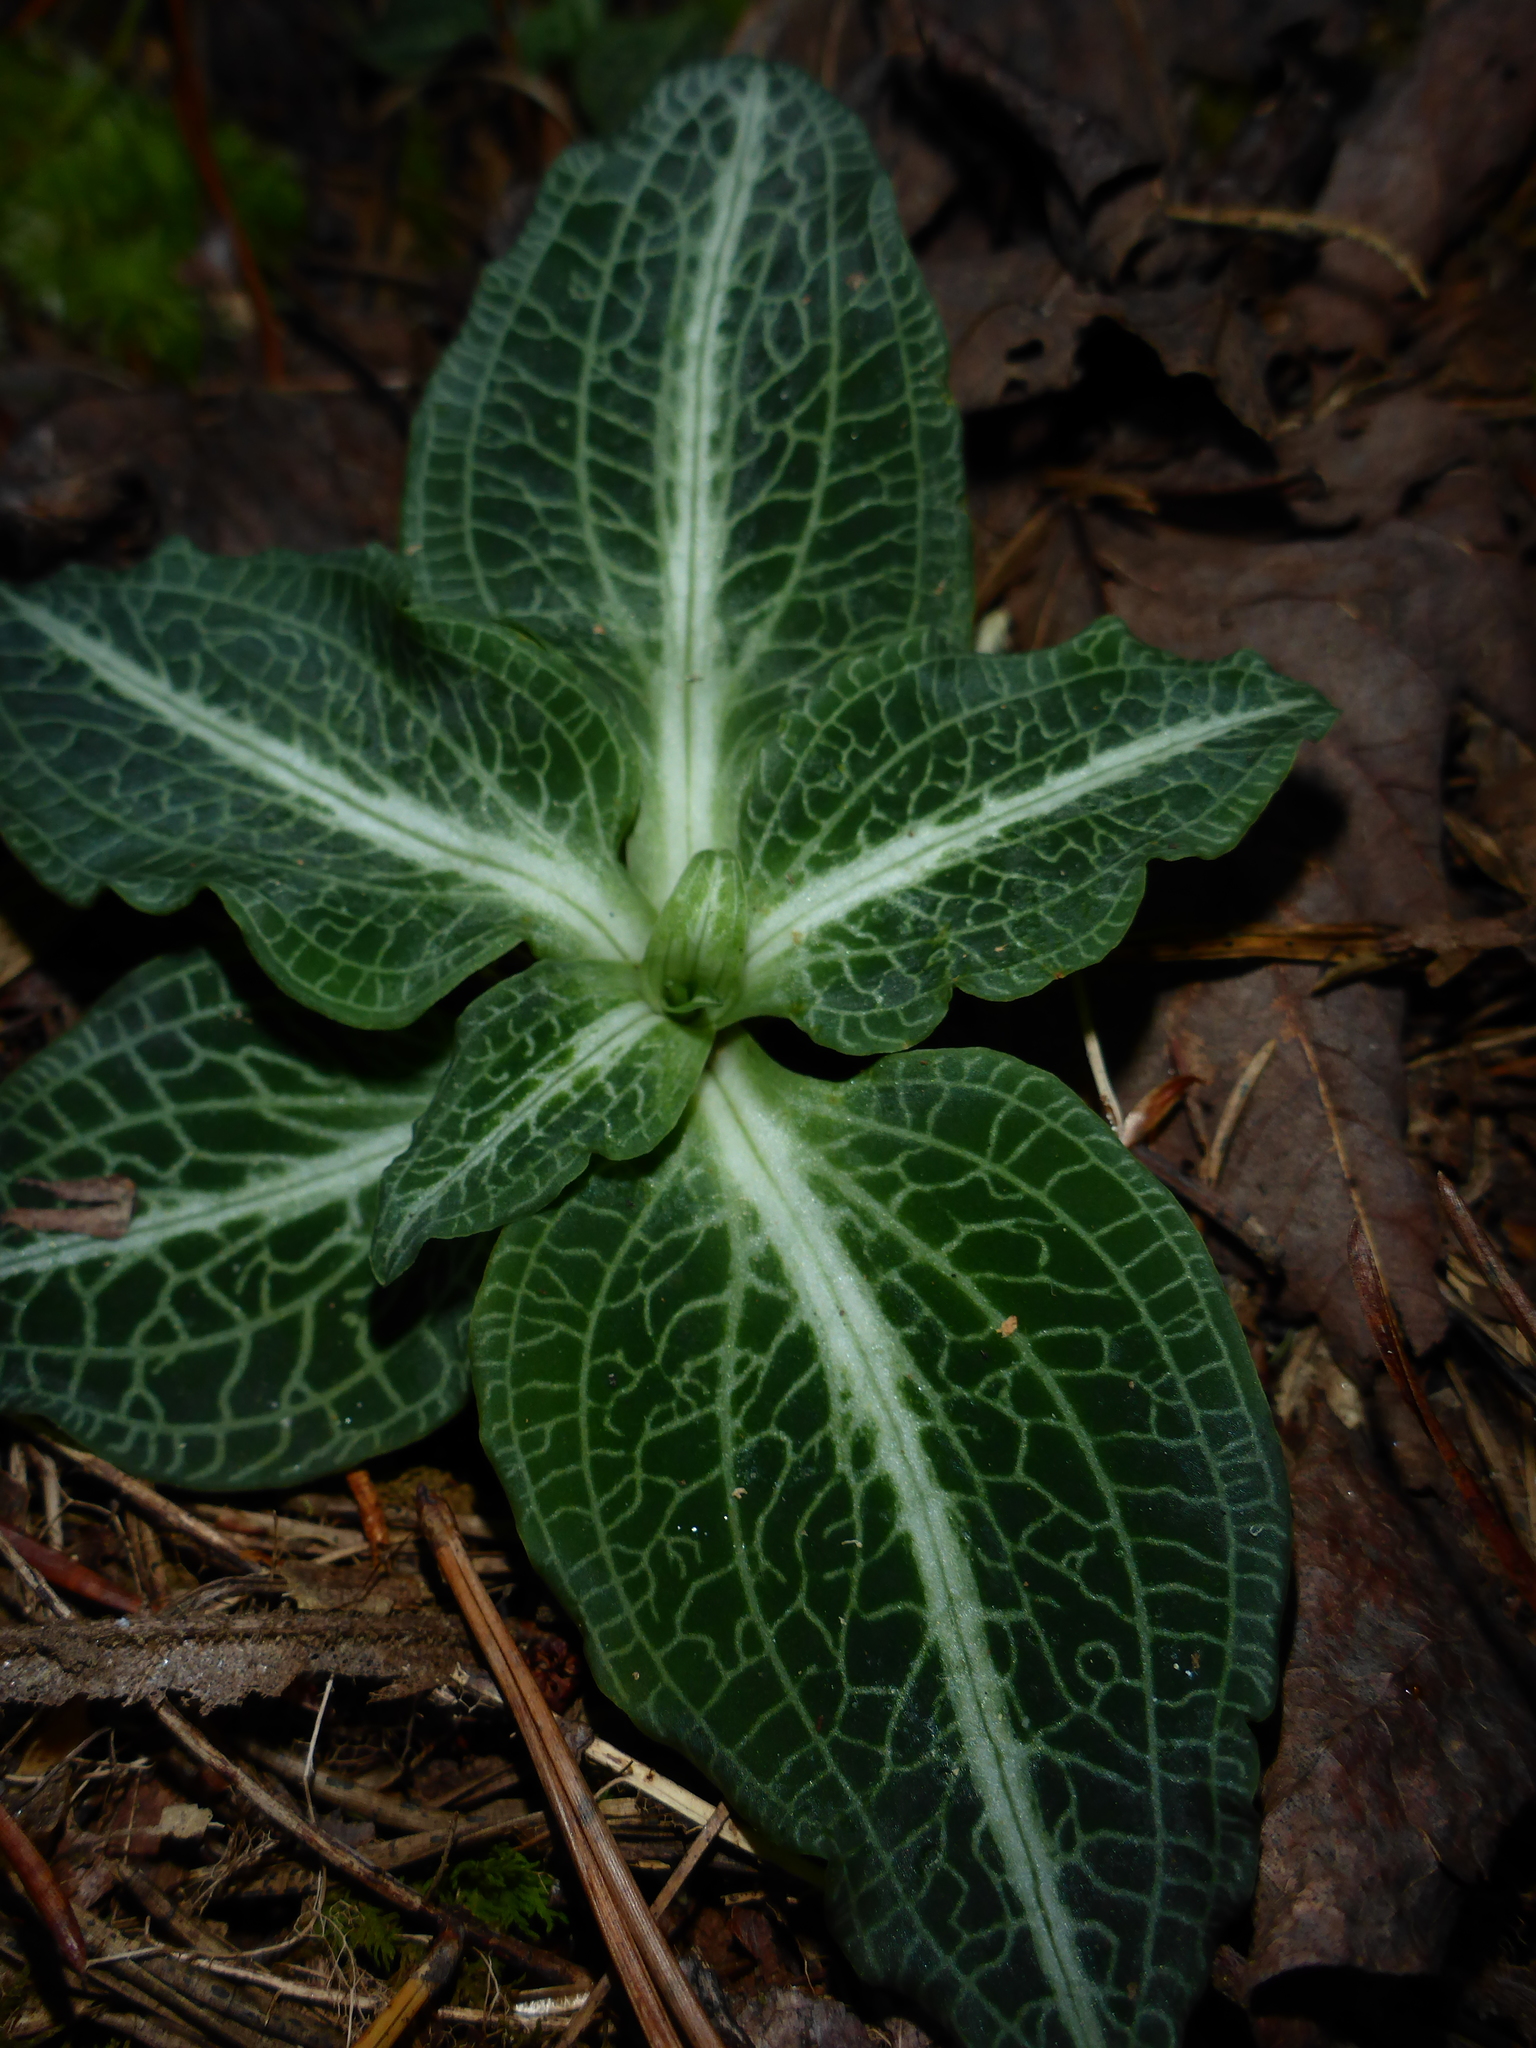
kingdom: Plantae
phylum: Tracheophyta
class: Liliopsida
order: Asparagales
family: Orchidaceae
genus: Goodyera
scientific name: Goodyera pubescens
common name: Downy rattlesnake-plantain
